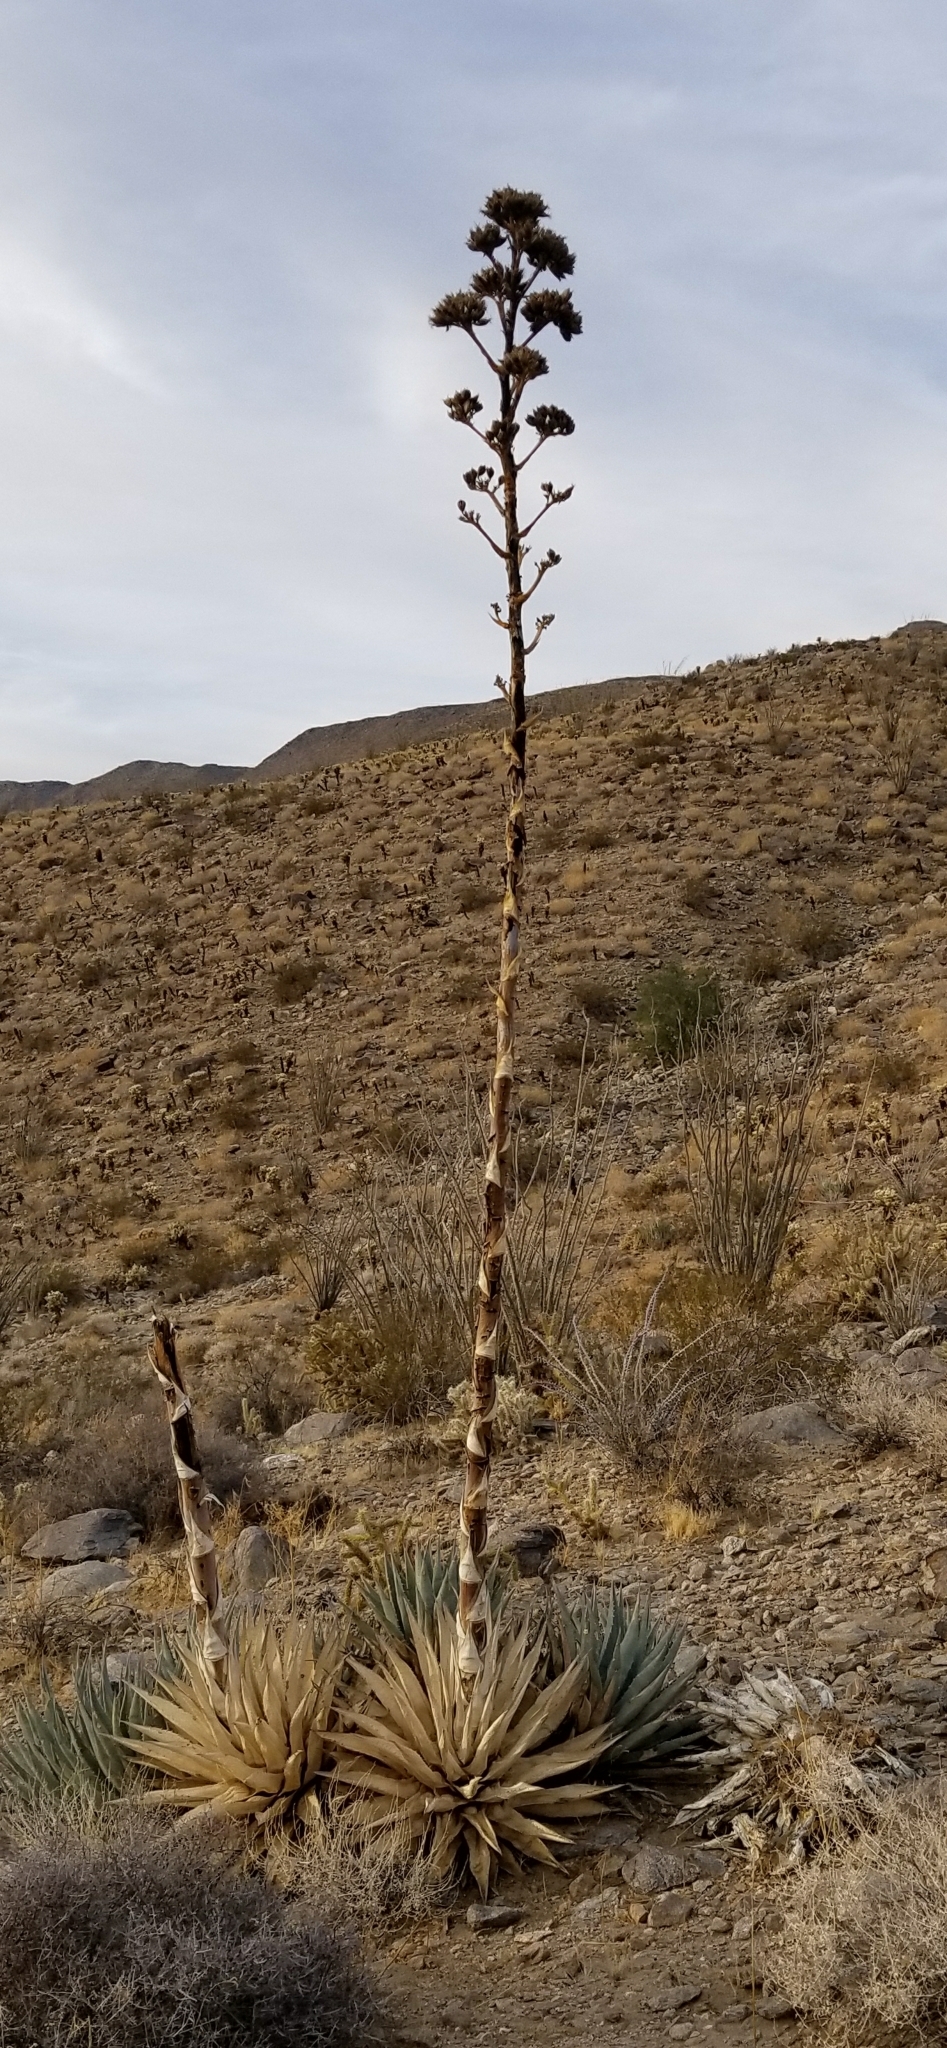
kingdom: Plantae
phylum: Tracheophyta
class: Liliopsida
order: Asparagales
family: Asparagaceae
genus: Agave
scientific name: Agave deserti
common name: Desert agave
